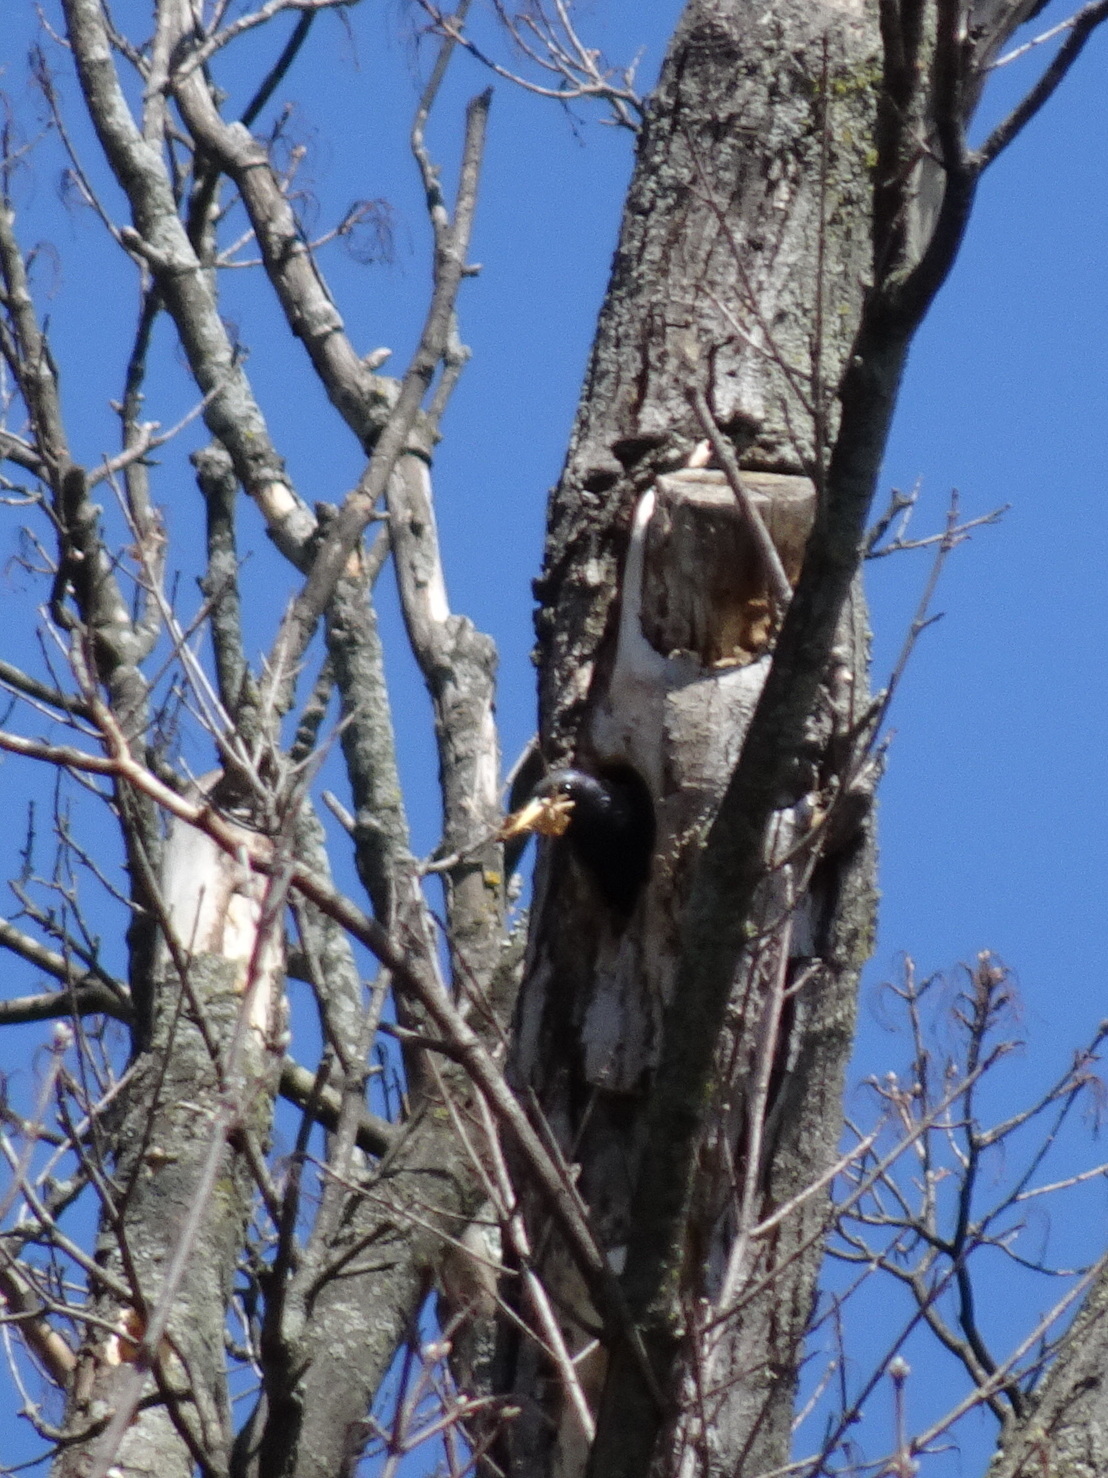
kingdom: Animalia
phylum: Chordata
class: Aves
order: Passeriformes
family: Sturnidae
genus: Sturnus
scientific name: Sturnus vulgaris
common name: Common starling
